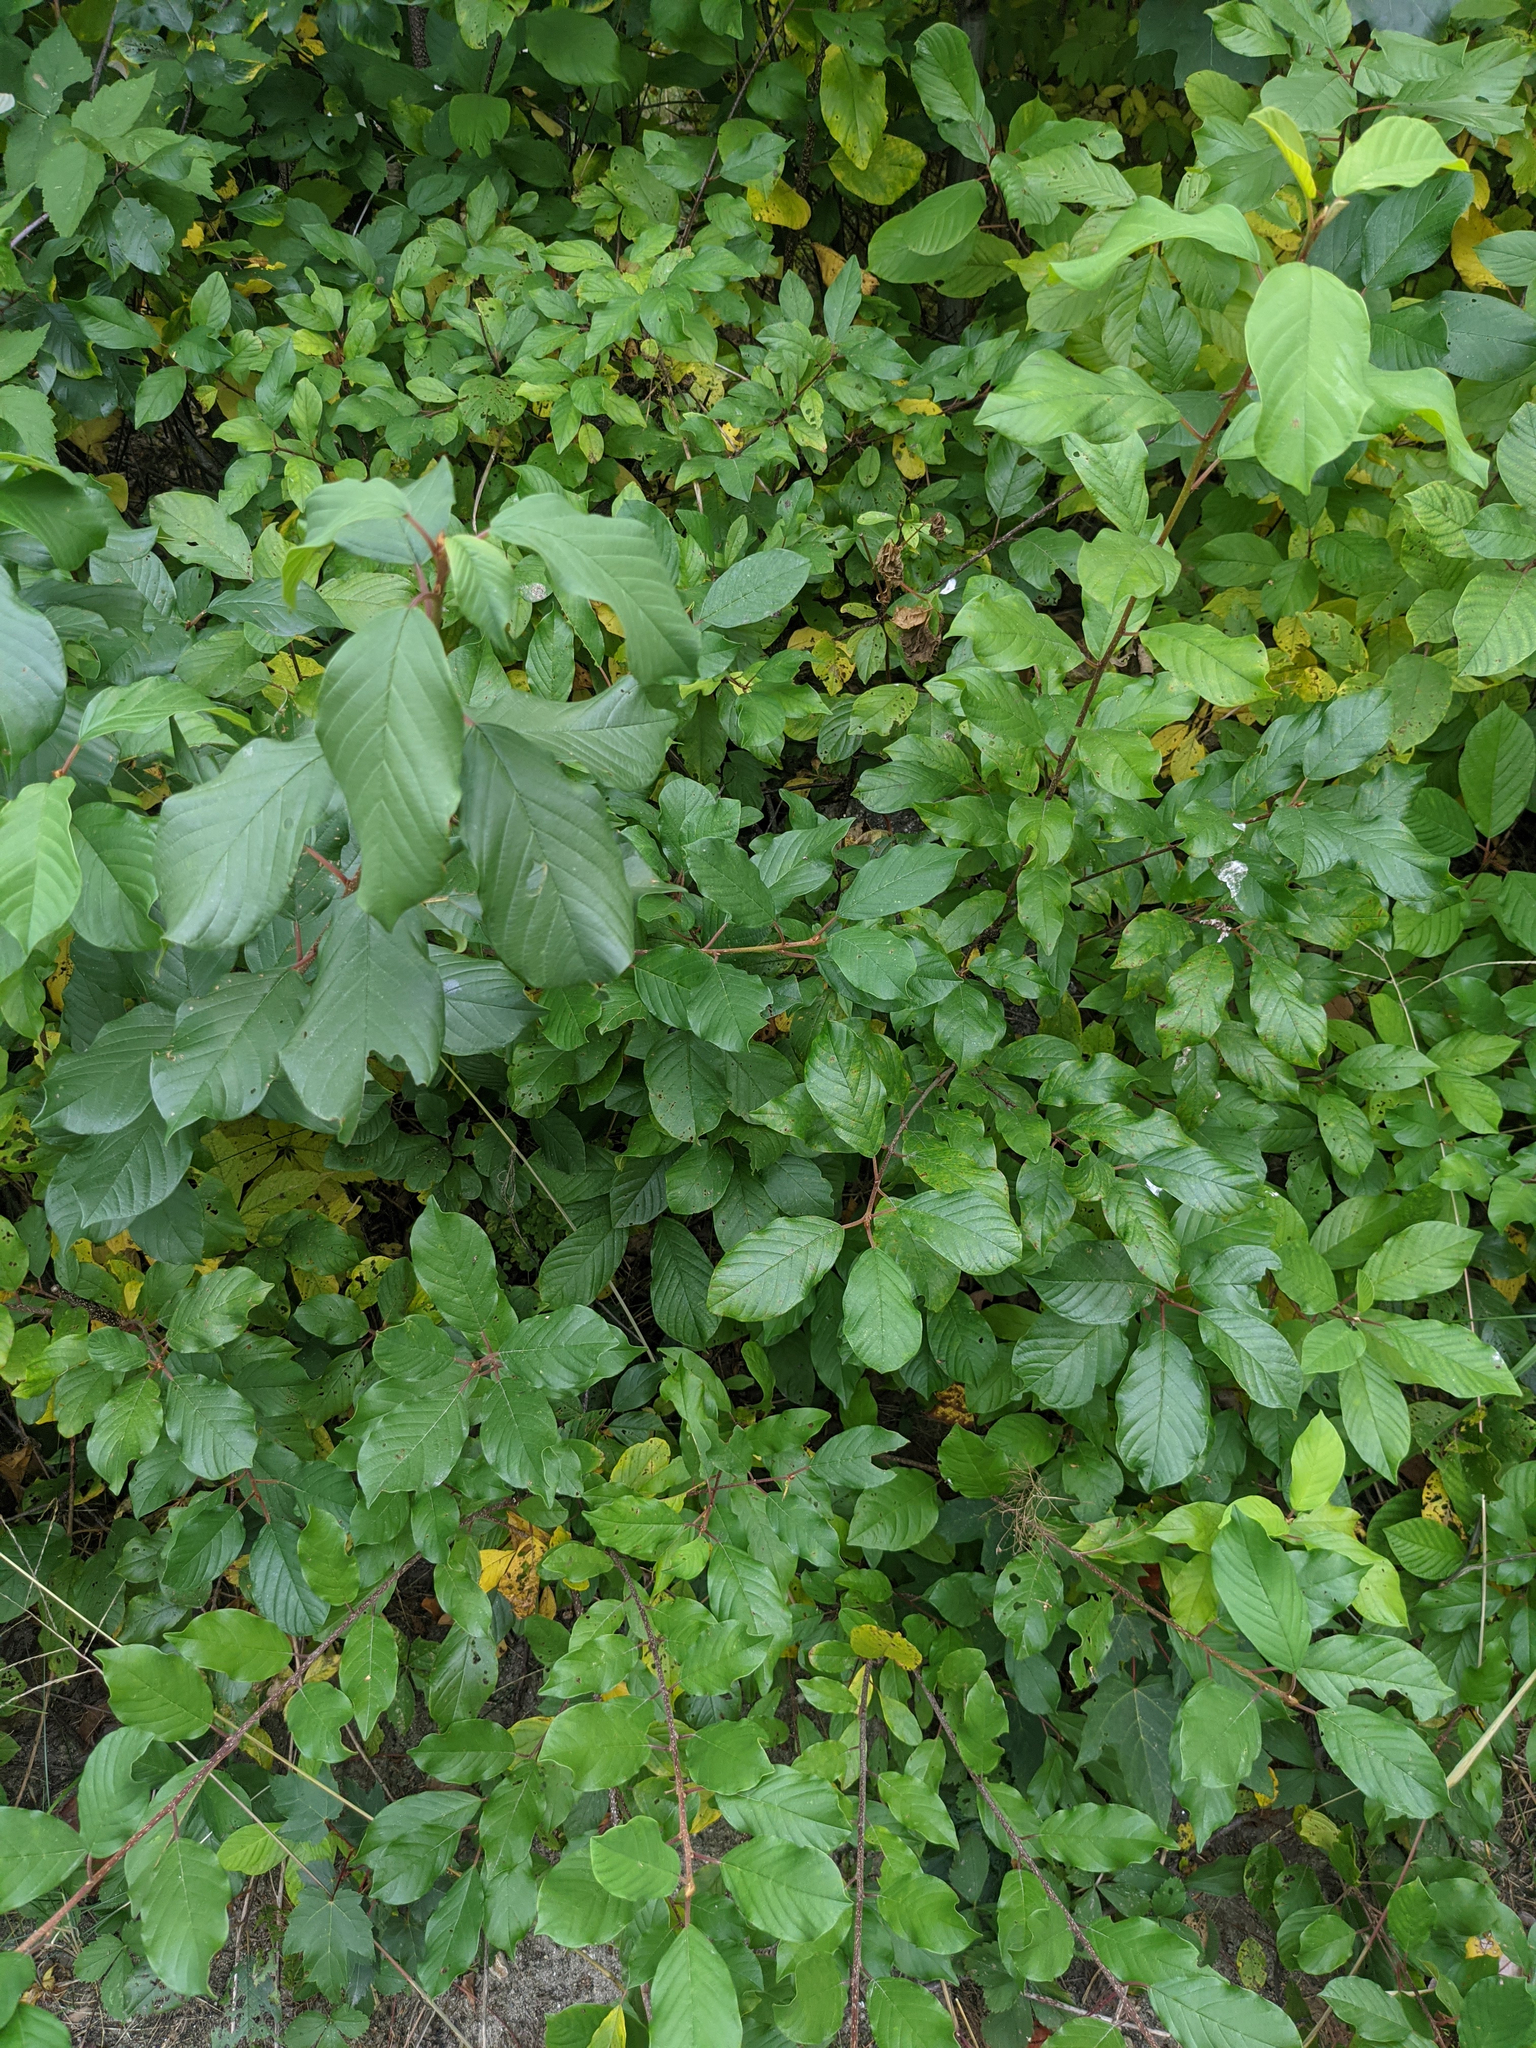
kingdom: Plantae
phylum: Tracheophyta
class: Magnoliopsida
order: Rosales
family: Rhamnaceae
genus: Frangula
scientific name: Frangula alnus
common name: Alder buckthorn
